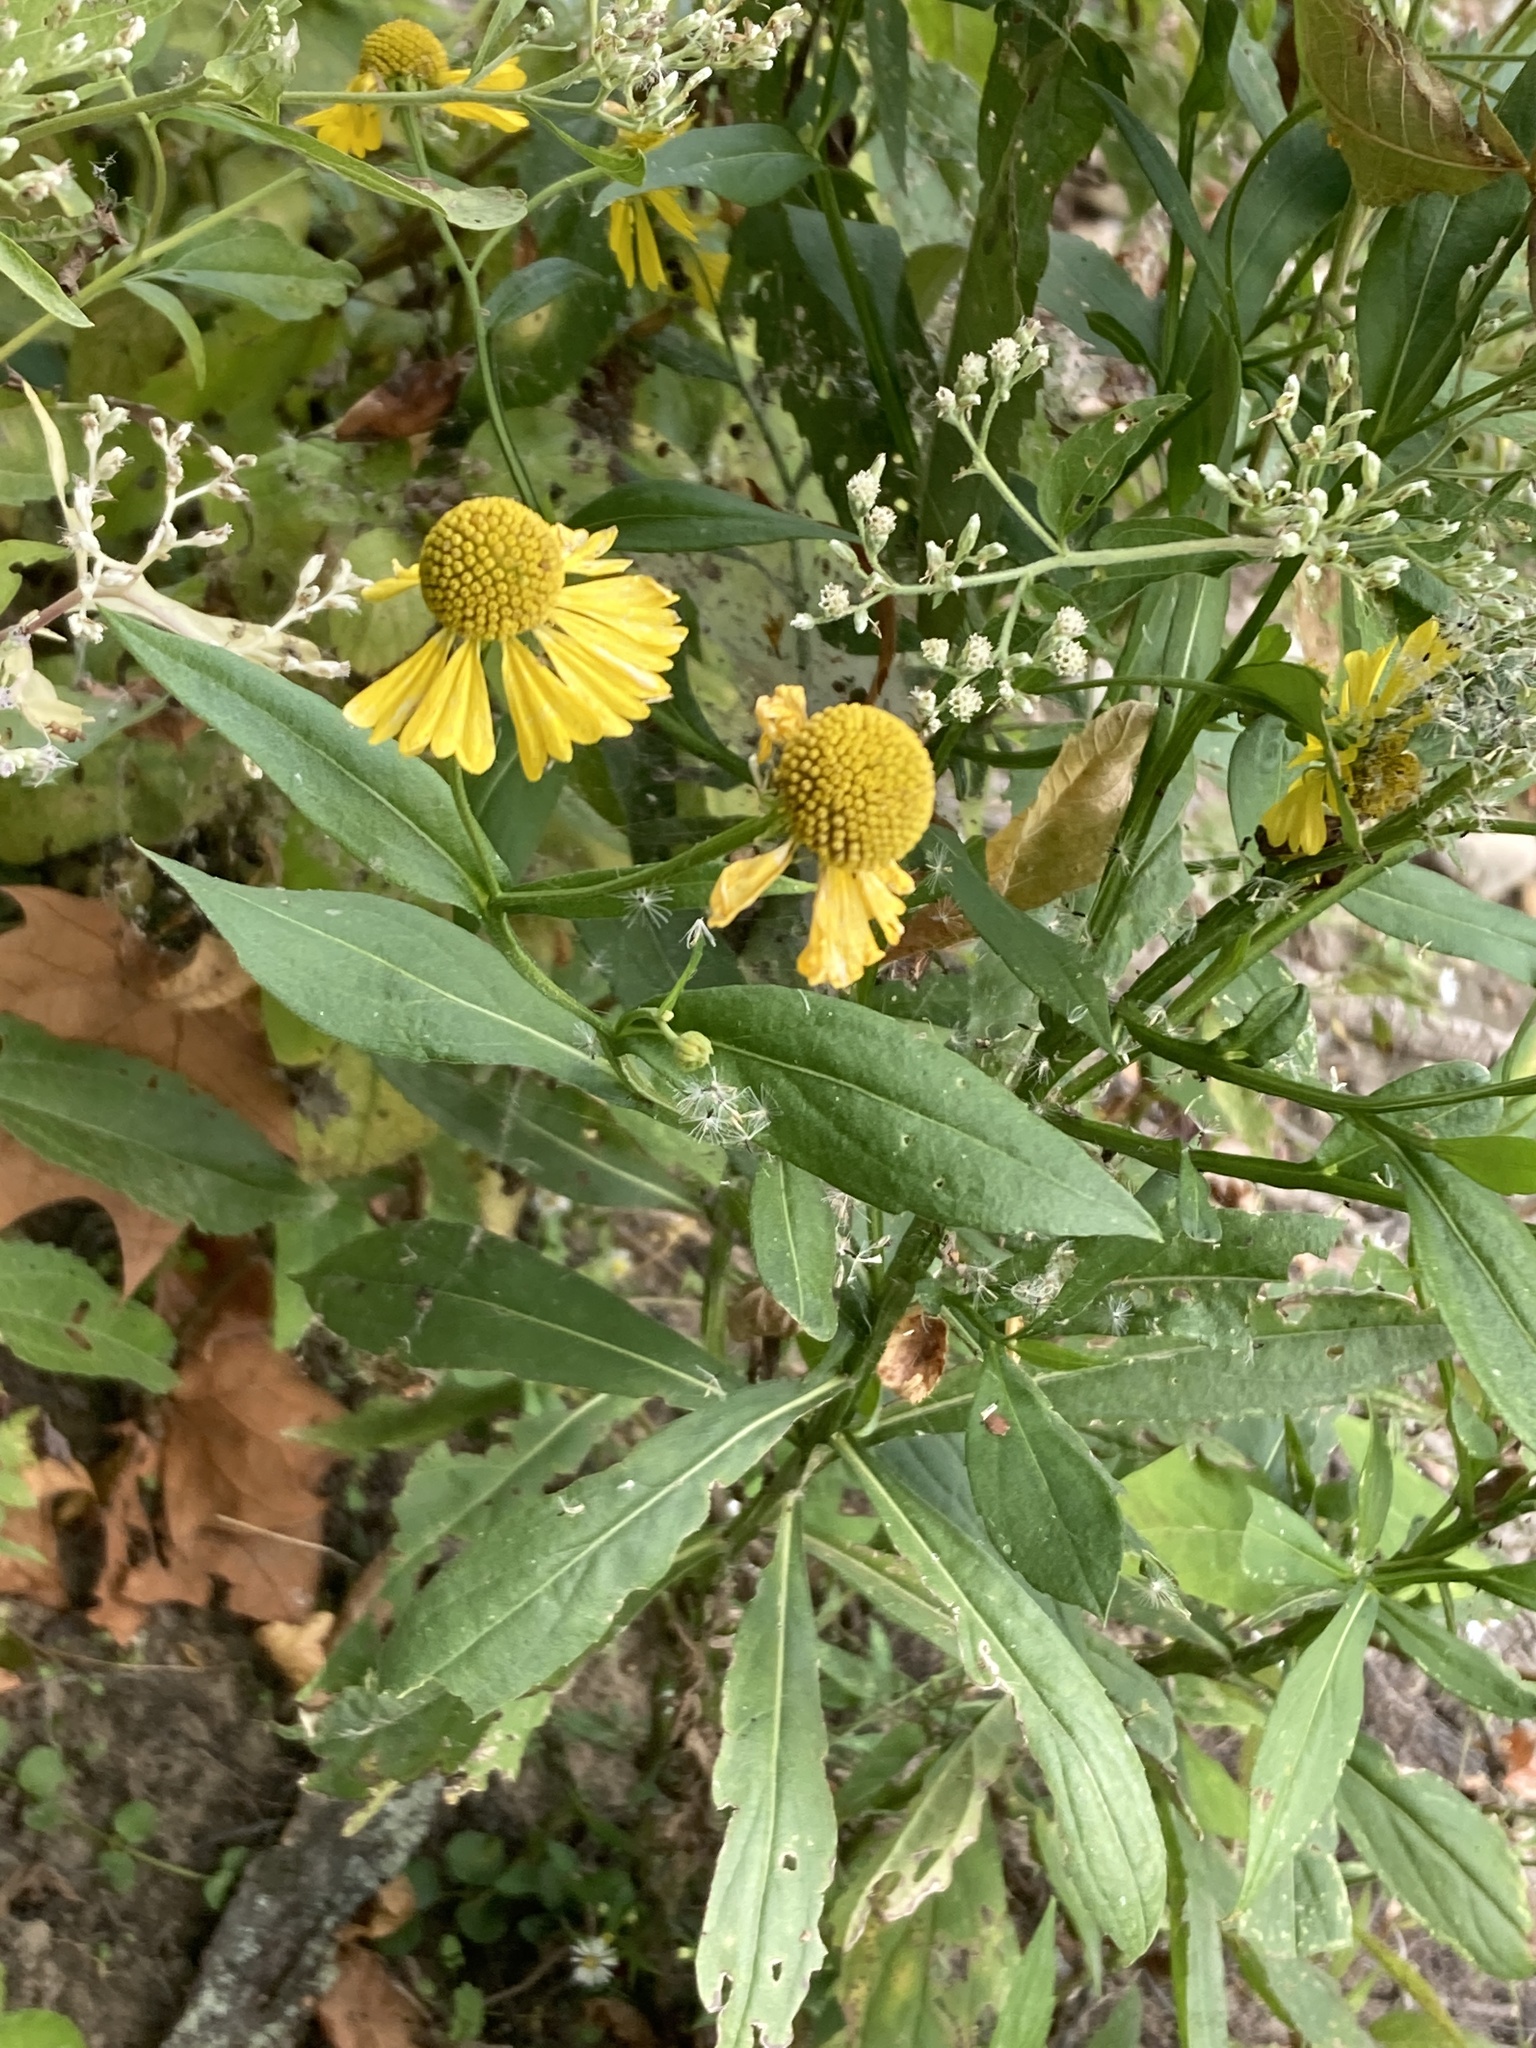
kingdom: Plantae
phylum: Tracheophyta
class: Magnoliopsida
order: Asterales
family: Asteraceae
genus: Helenium
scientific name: Helenium autumnale
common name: Sneezeweed
